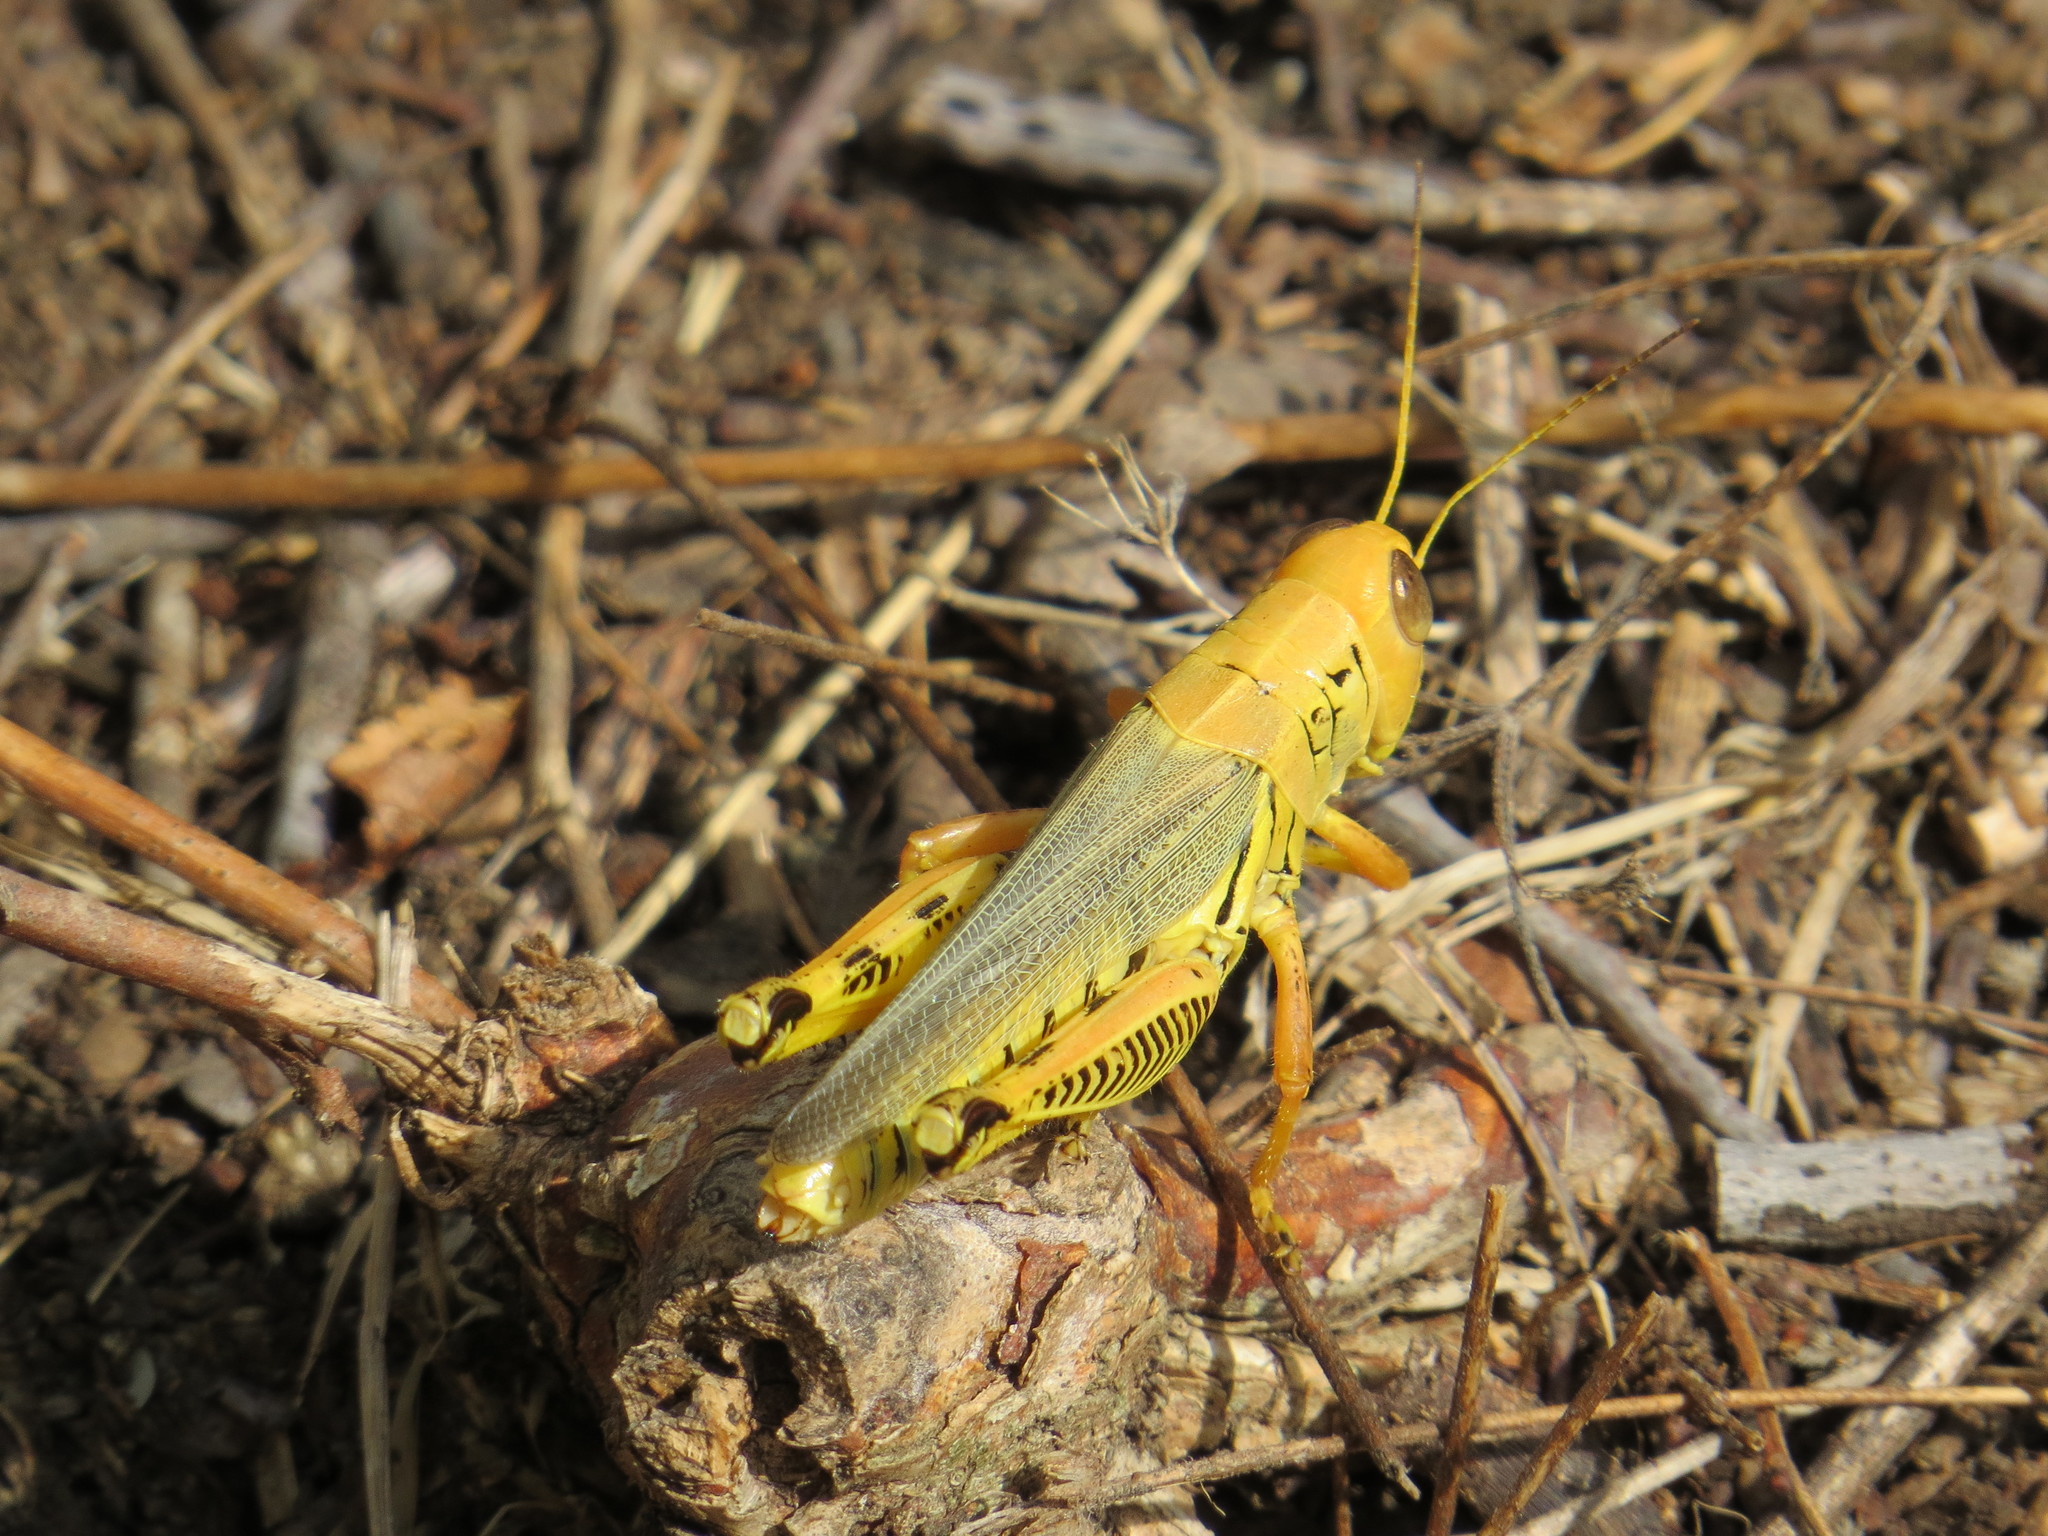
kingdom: Animalia
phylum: Arthropoda
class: Insecta
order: Orthoptera
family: Acrididae
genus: Melanoplus
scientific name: Melanoplus differentialis
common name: Differential grasshopper
